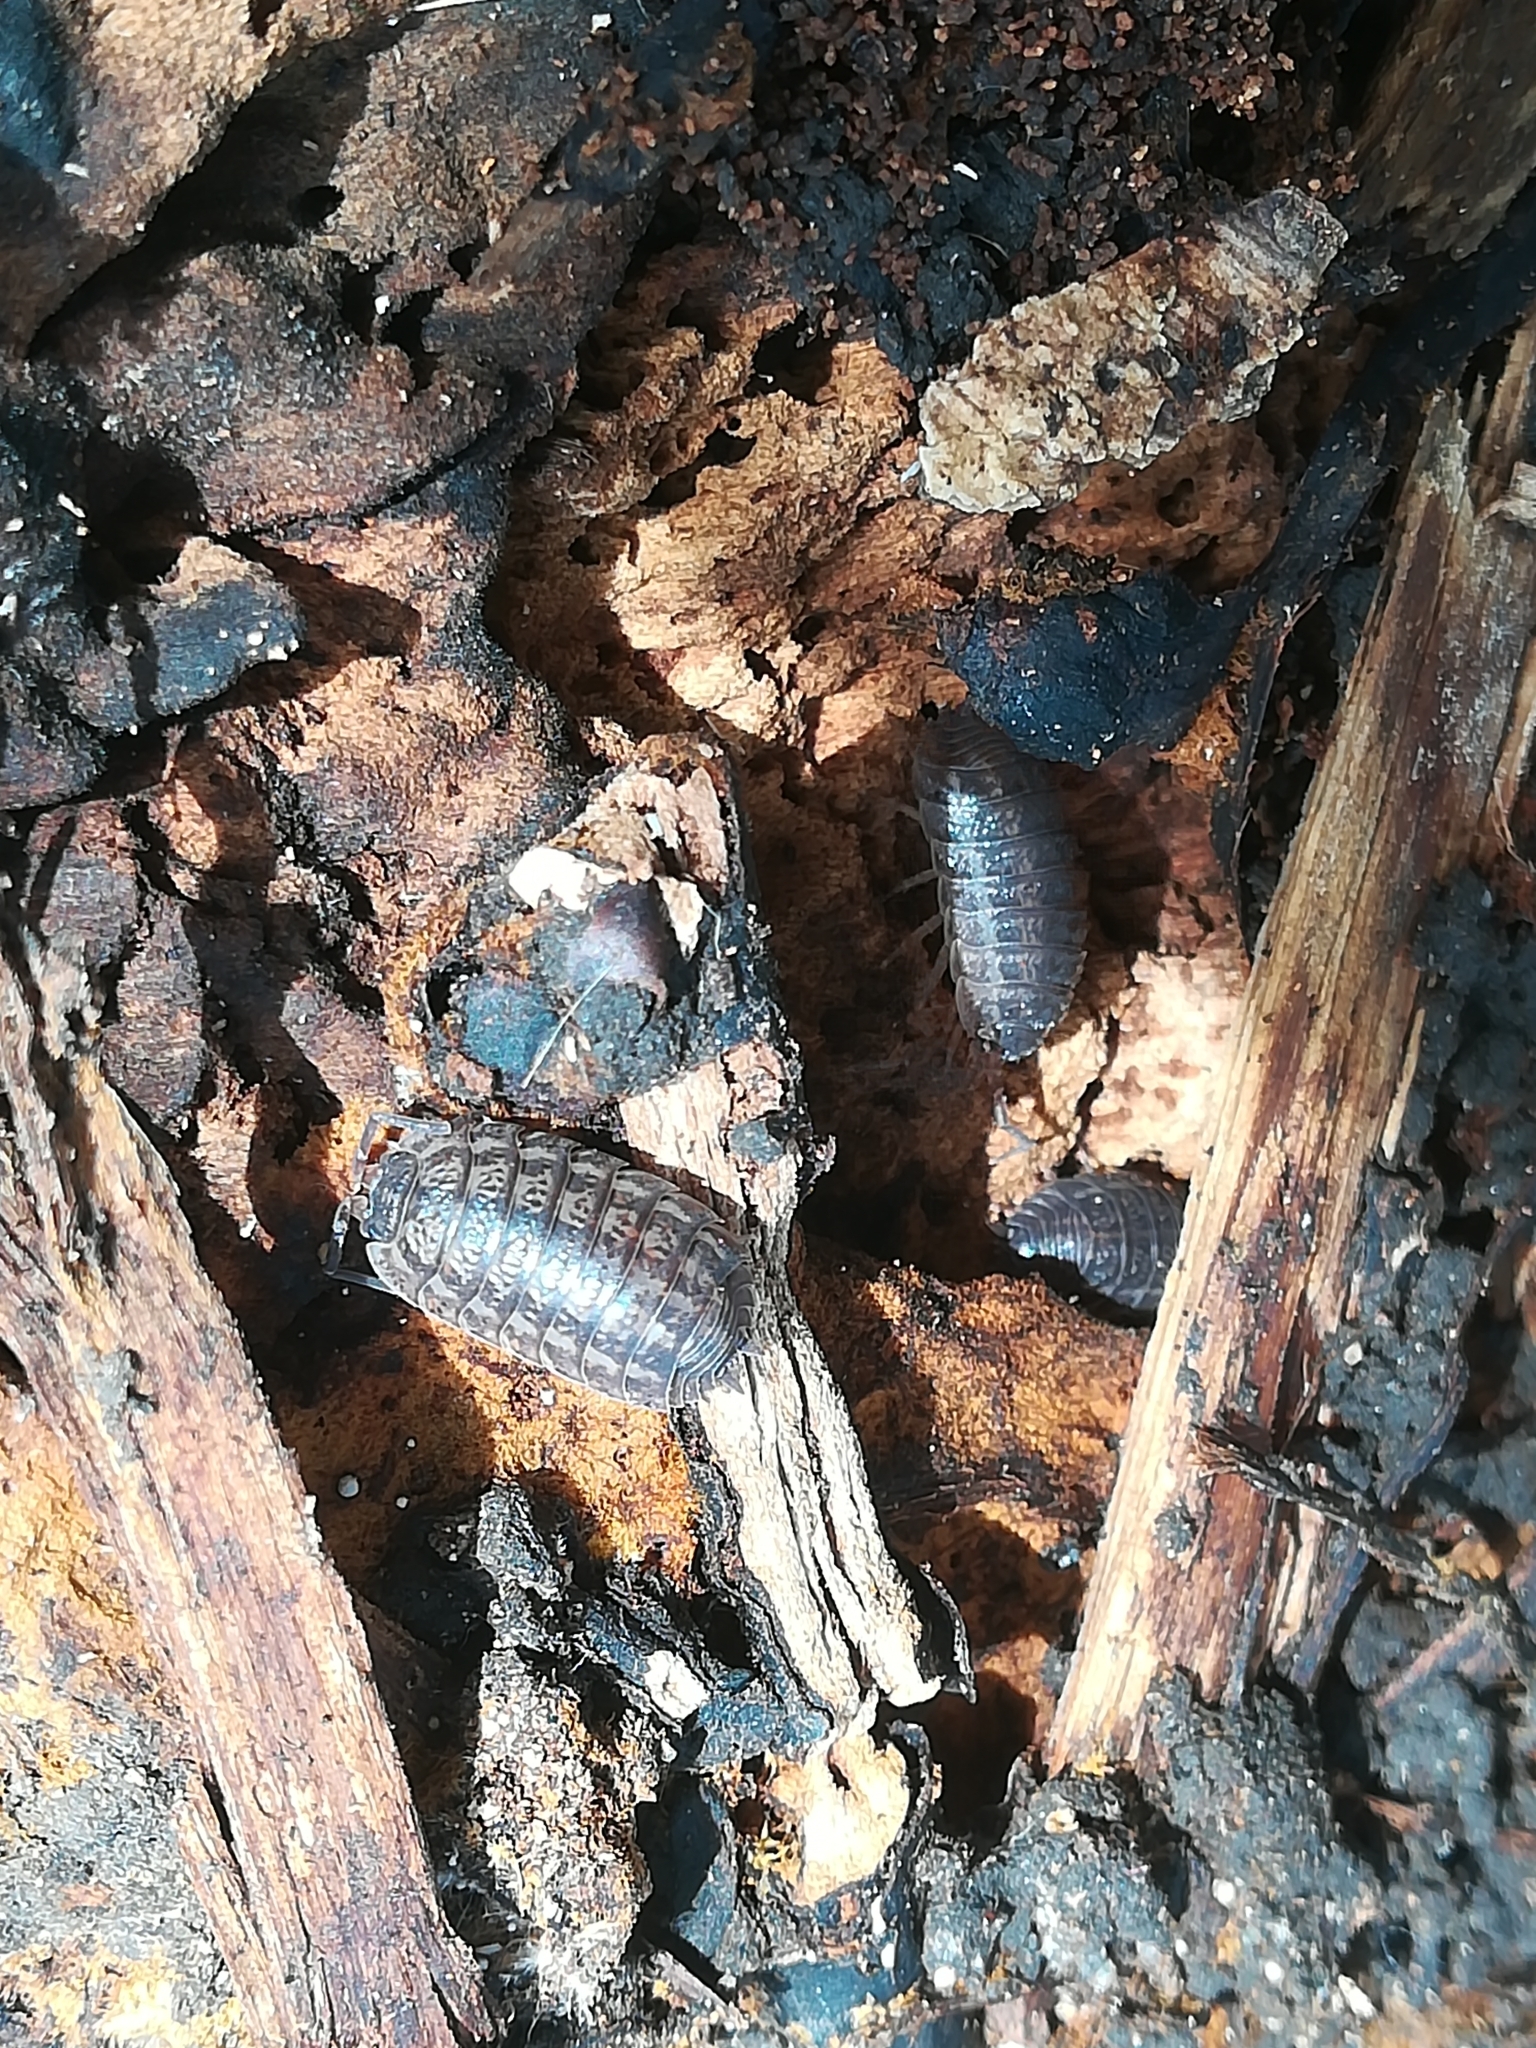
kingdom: Animalia
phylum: Arthropoda
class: Malacostraca
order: Isopoda
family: Trachelipodidae
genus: Trachelipus
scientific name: Trachelipus rathkii
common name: Isopod
